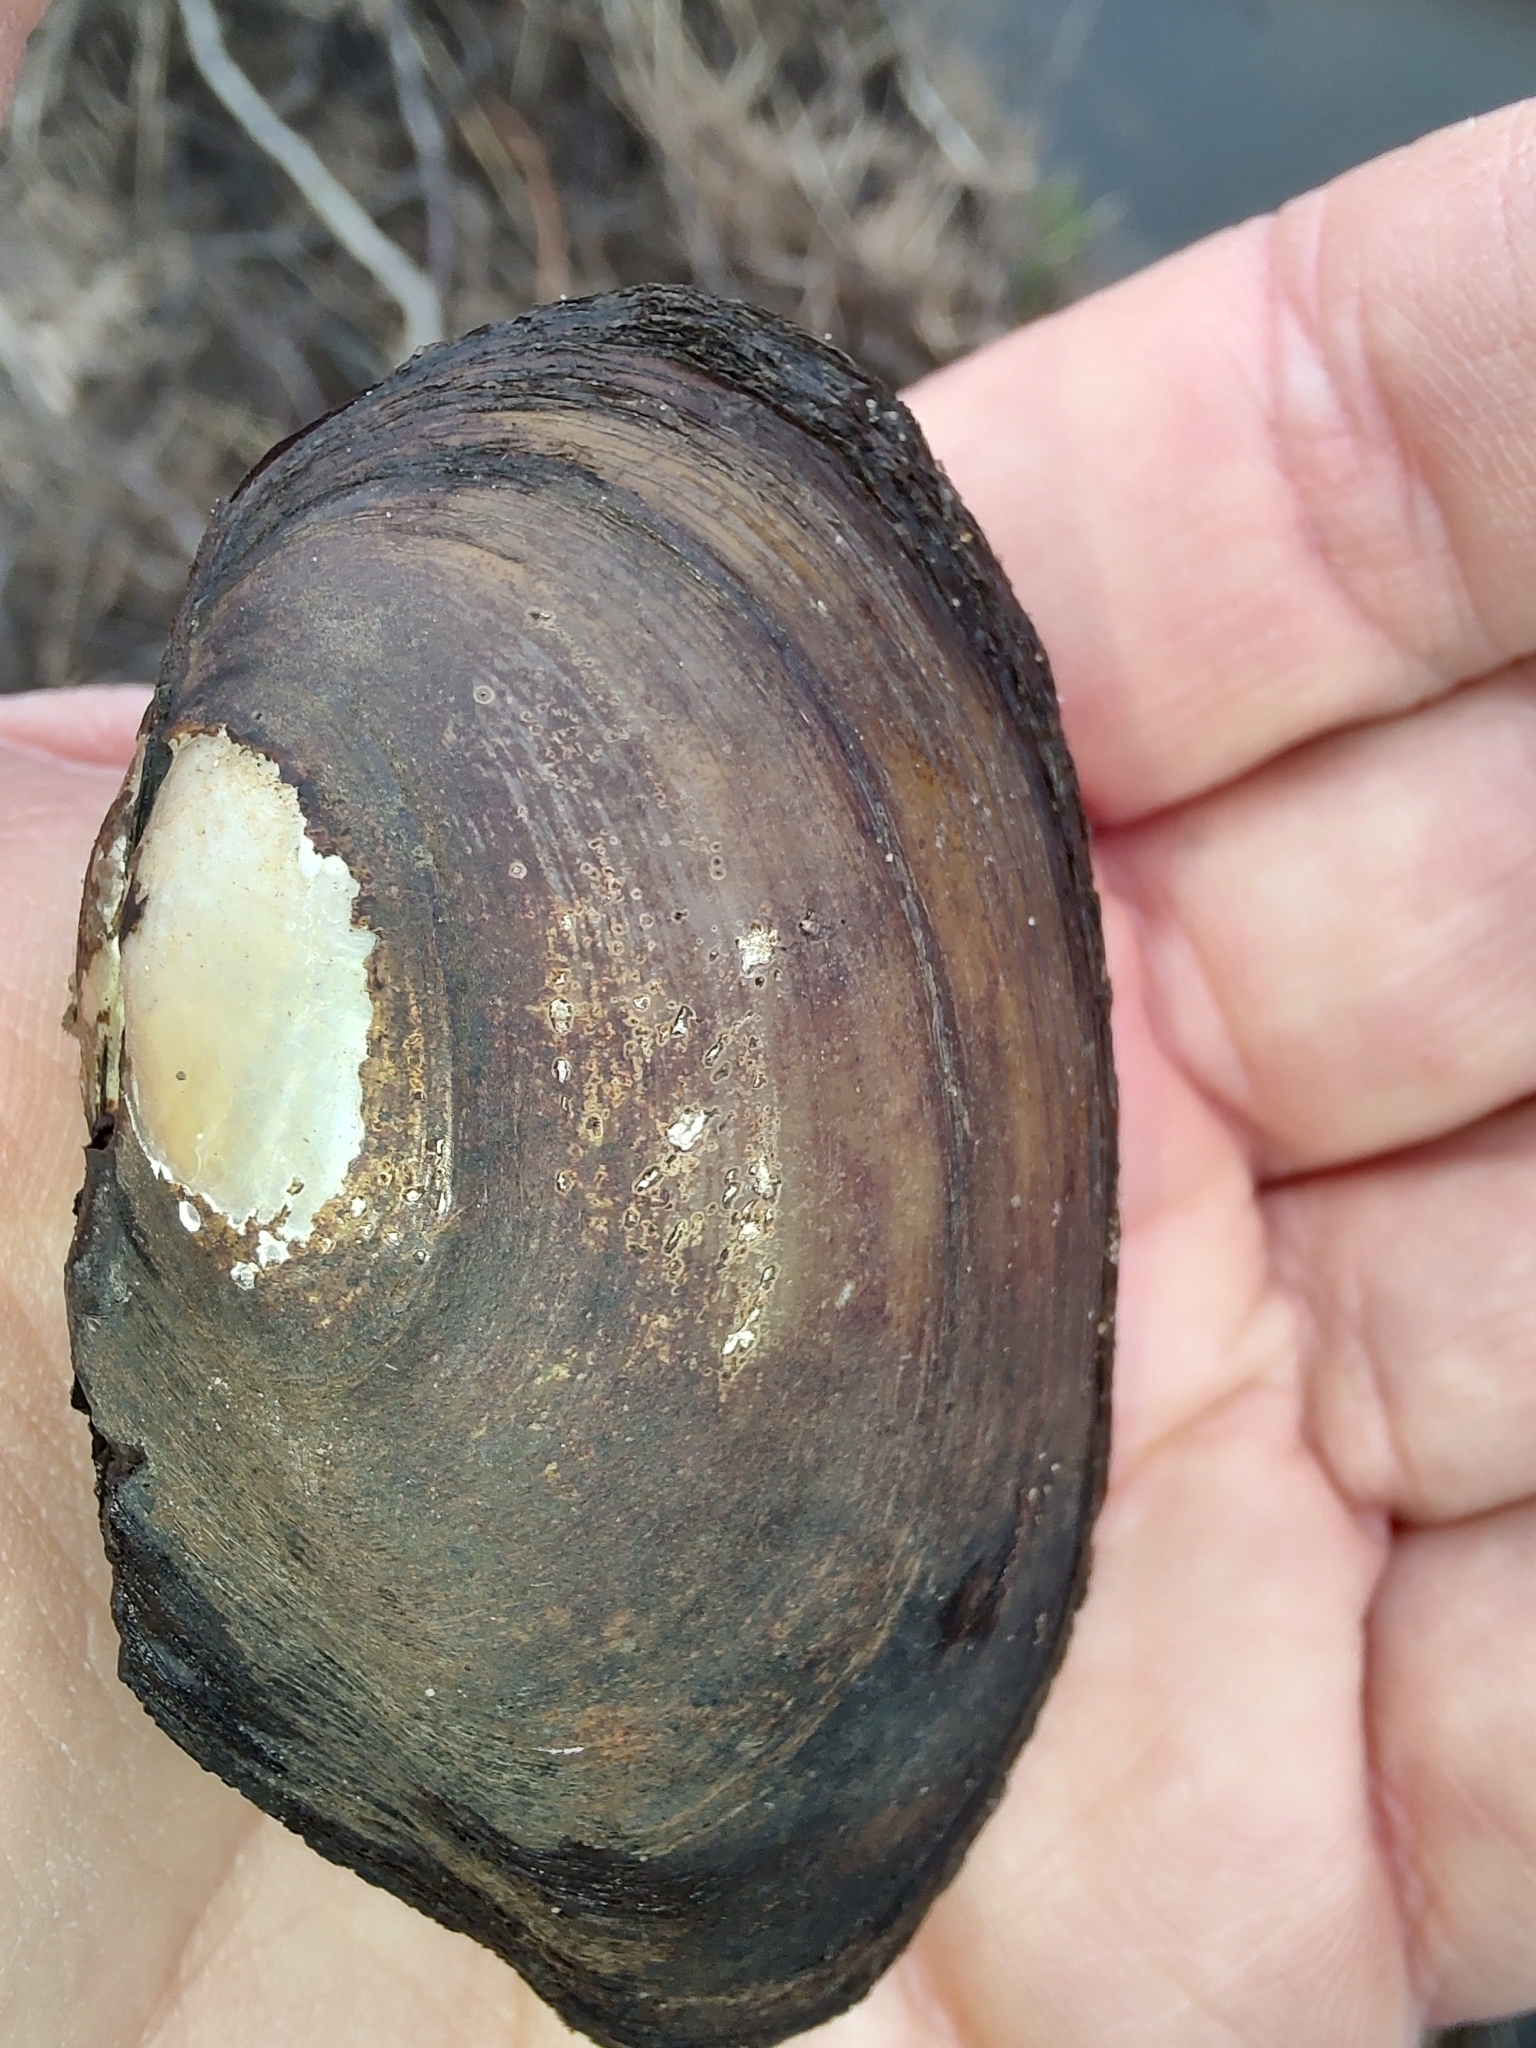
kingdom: Animalia
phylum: Mollusca
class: Bivalvia
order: Unionida
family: Unionidae
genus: Anodonta
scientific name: Anodonta anatina
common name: Duck mussel
